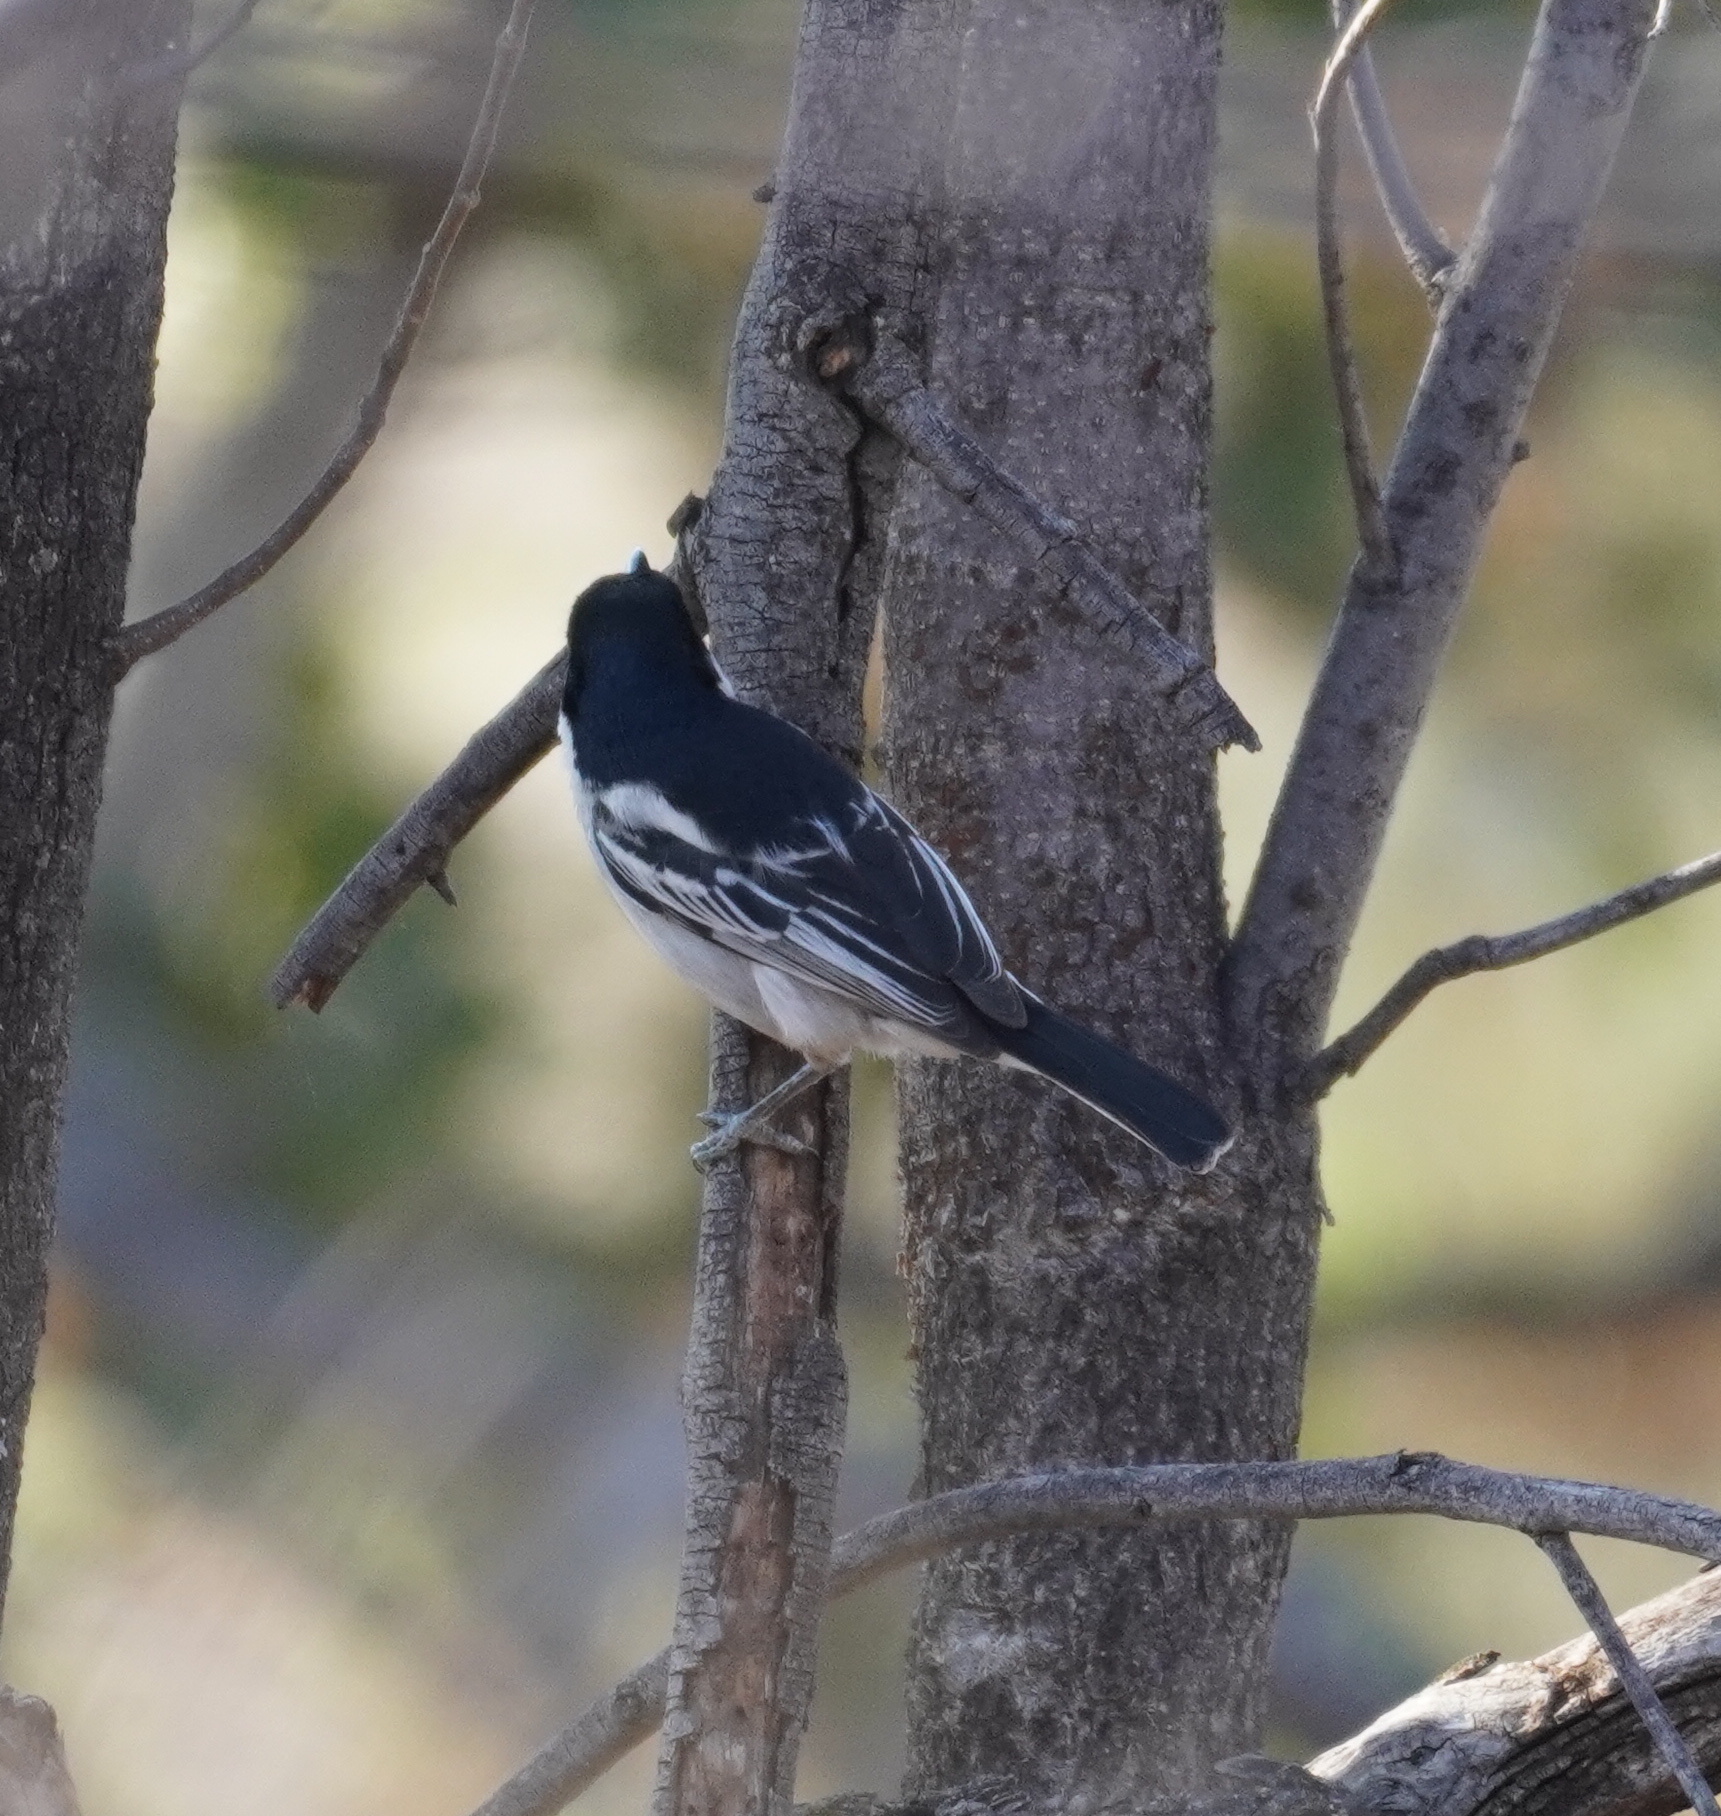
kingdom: Animalia
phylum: Chordata
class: Aves
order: Passeriformes
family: Malaconotidae
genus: Dryoscopus
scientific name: Dryoscopus cubla
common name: Black-backed puffback
